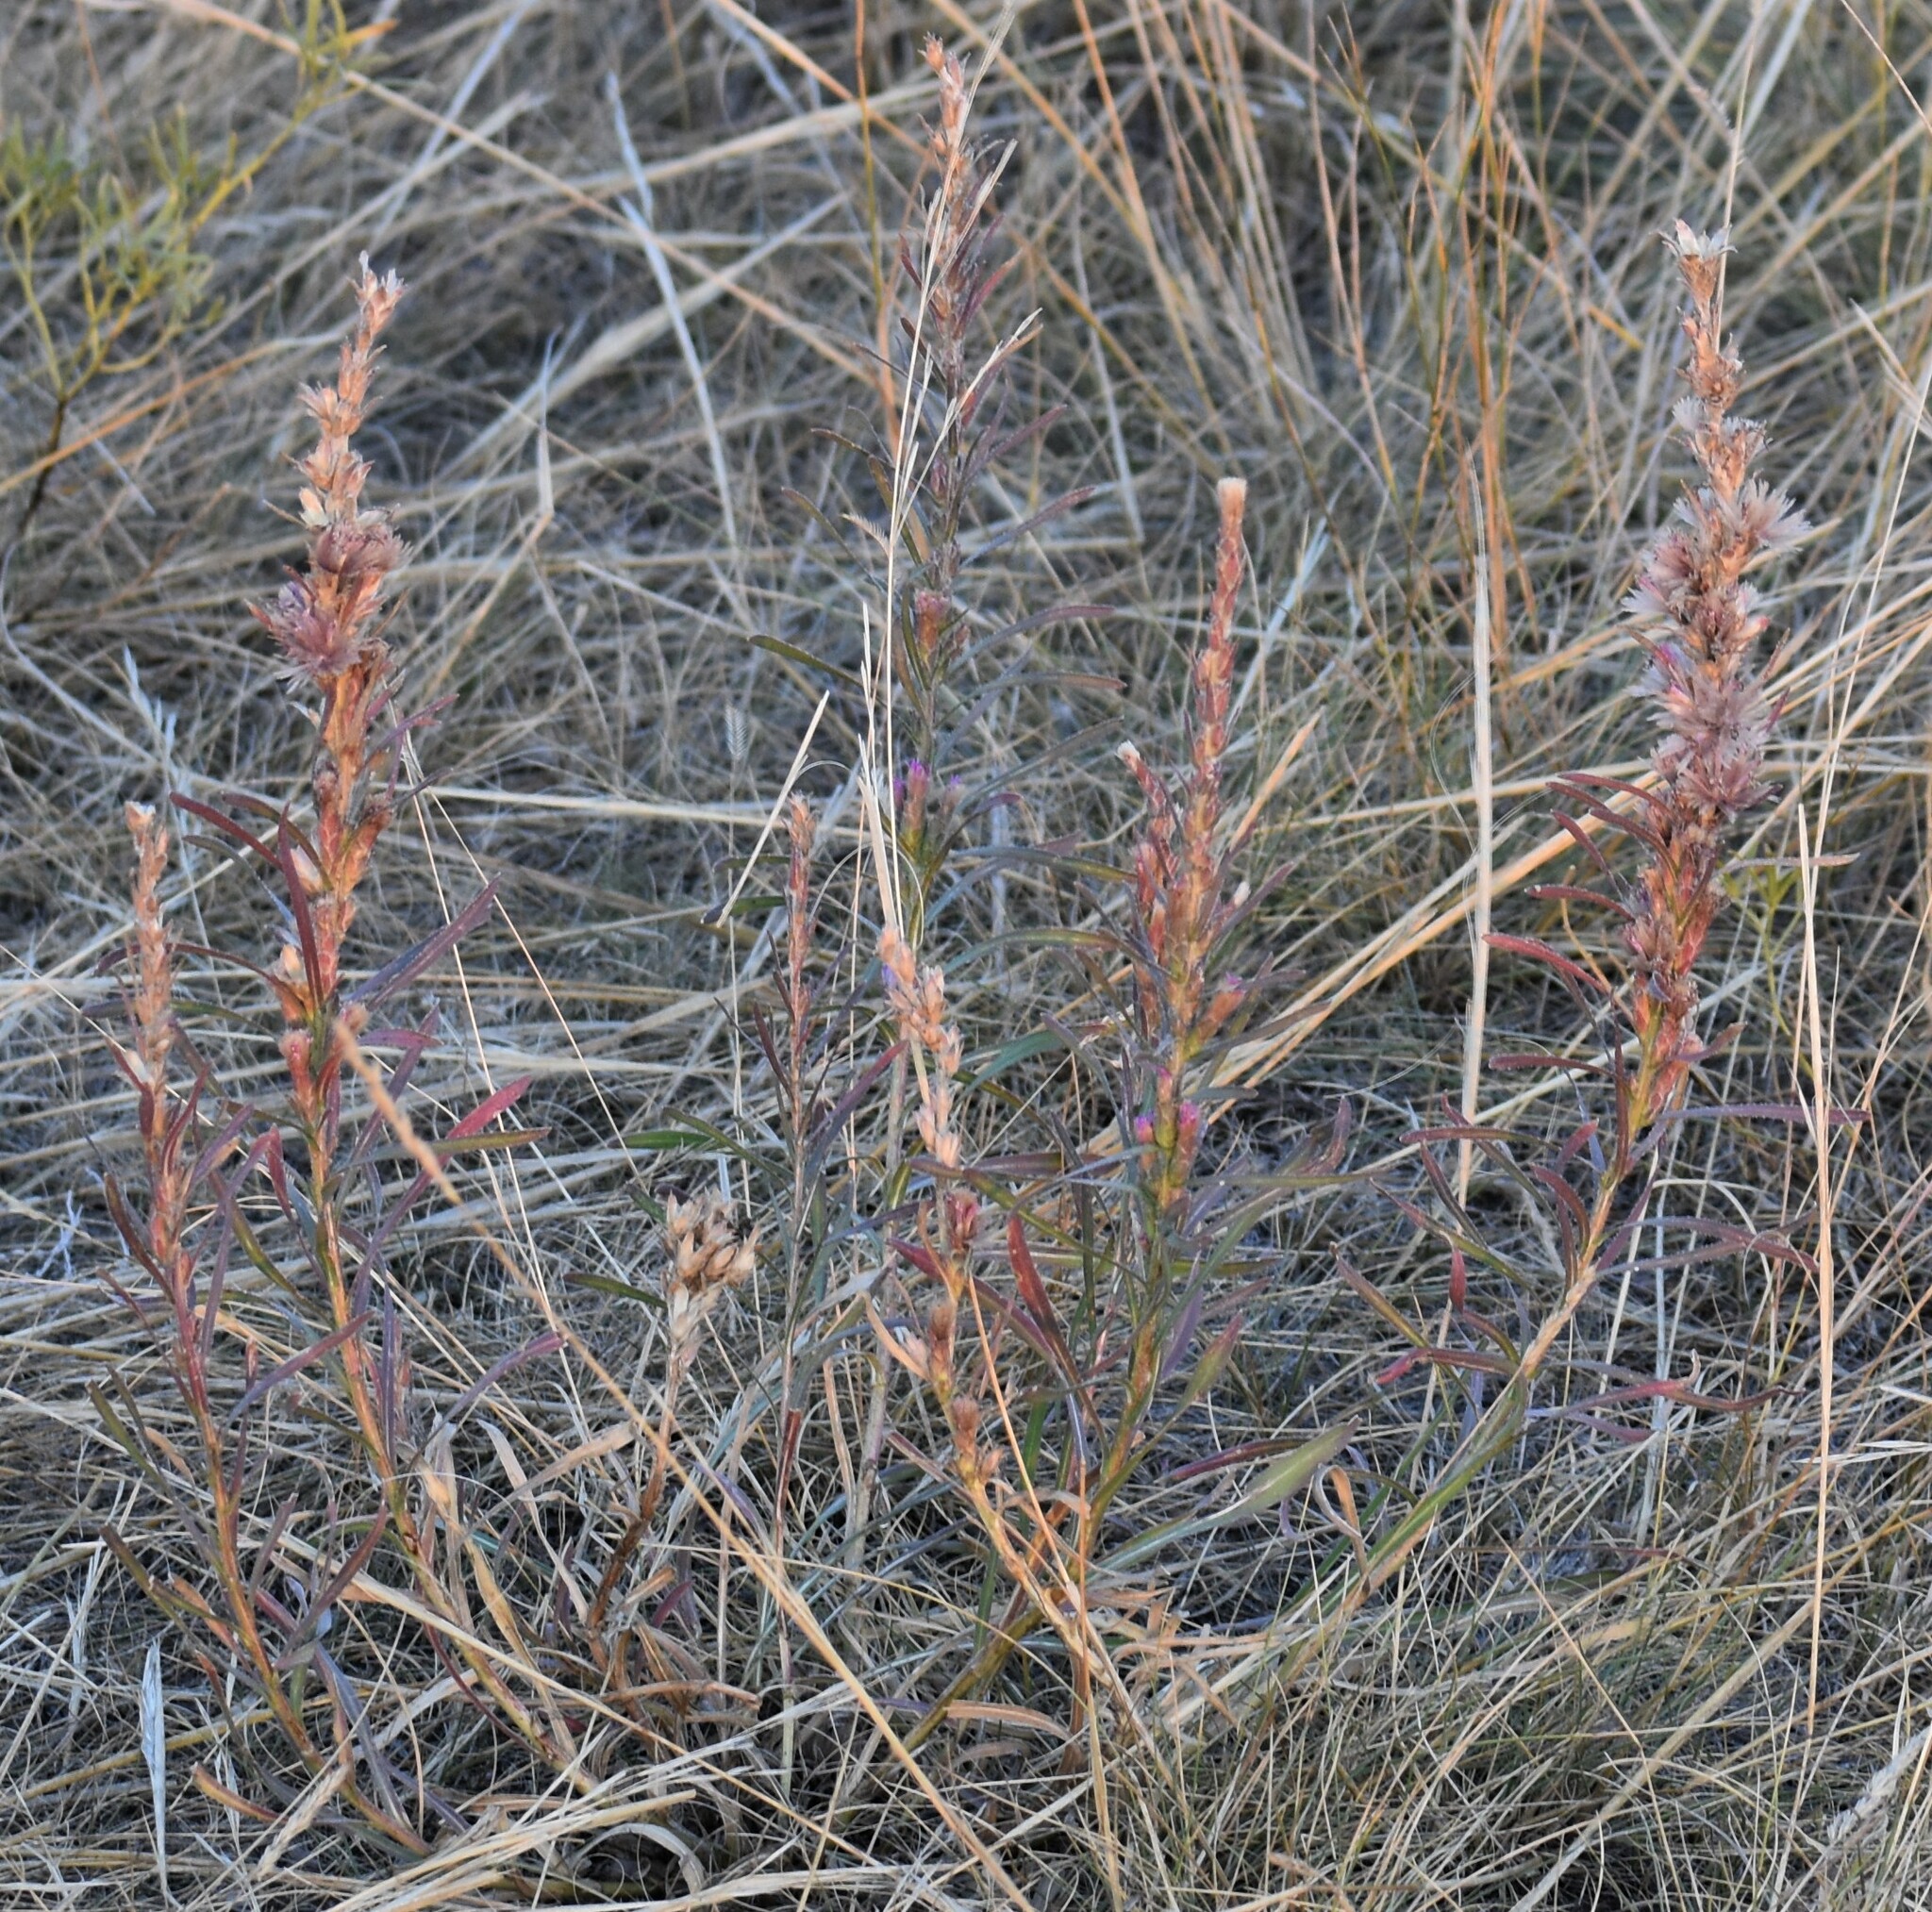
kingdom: Plantae
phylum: Tracheophyta
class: Magnoliopsida
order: Asterales
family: Asteraceae
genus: Liatris
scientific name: Liatris punctata
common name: Dotted gayfeather
